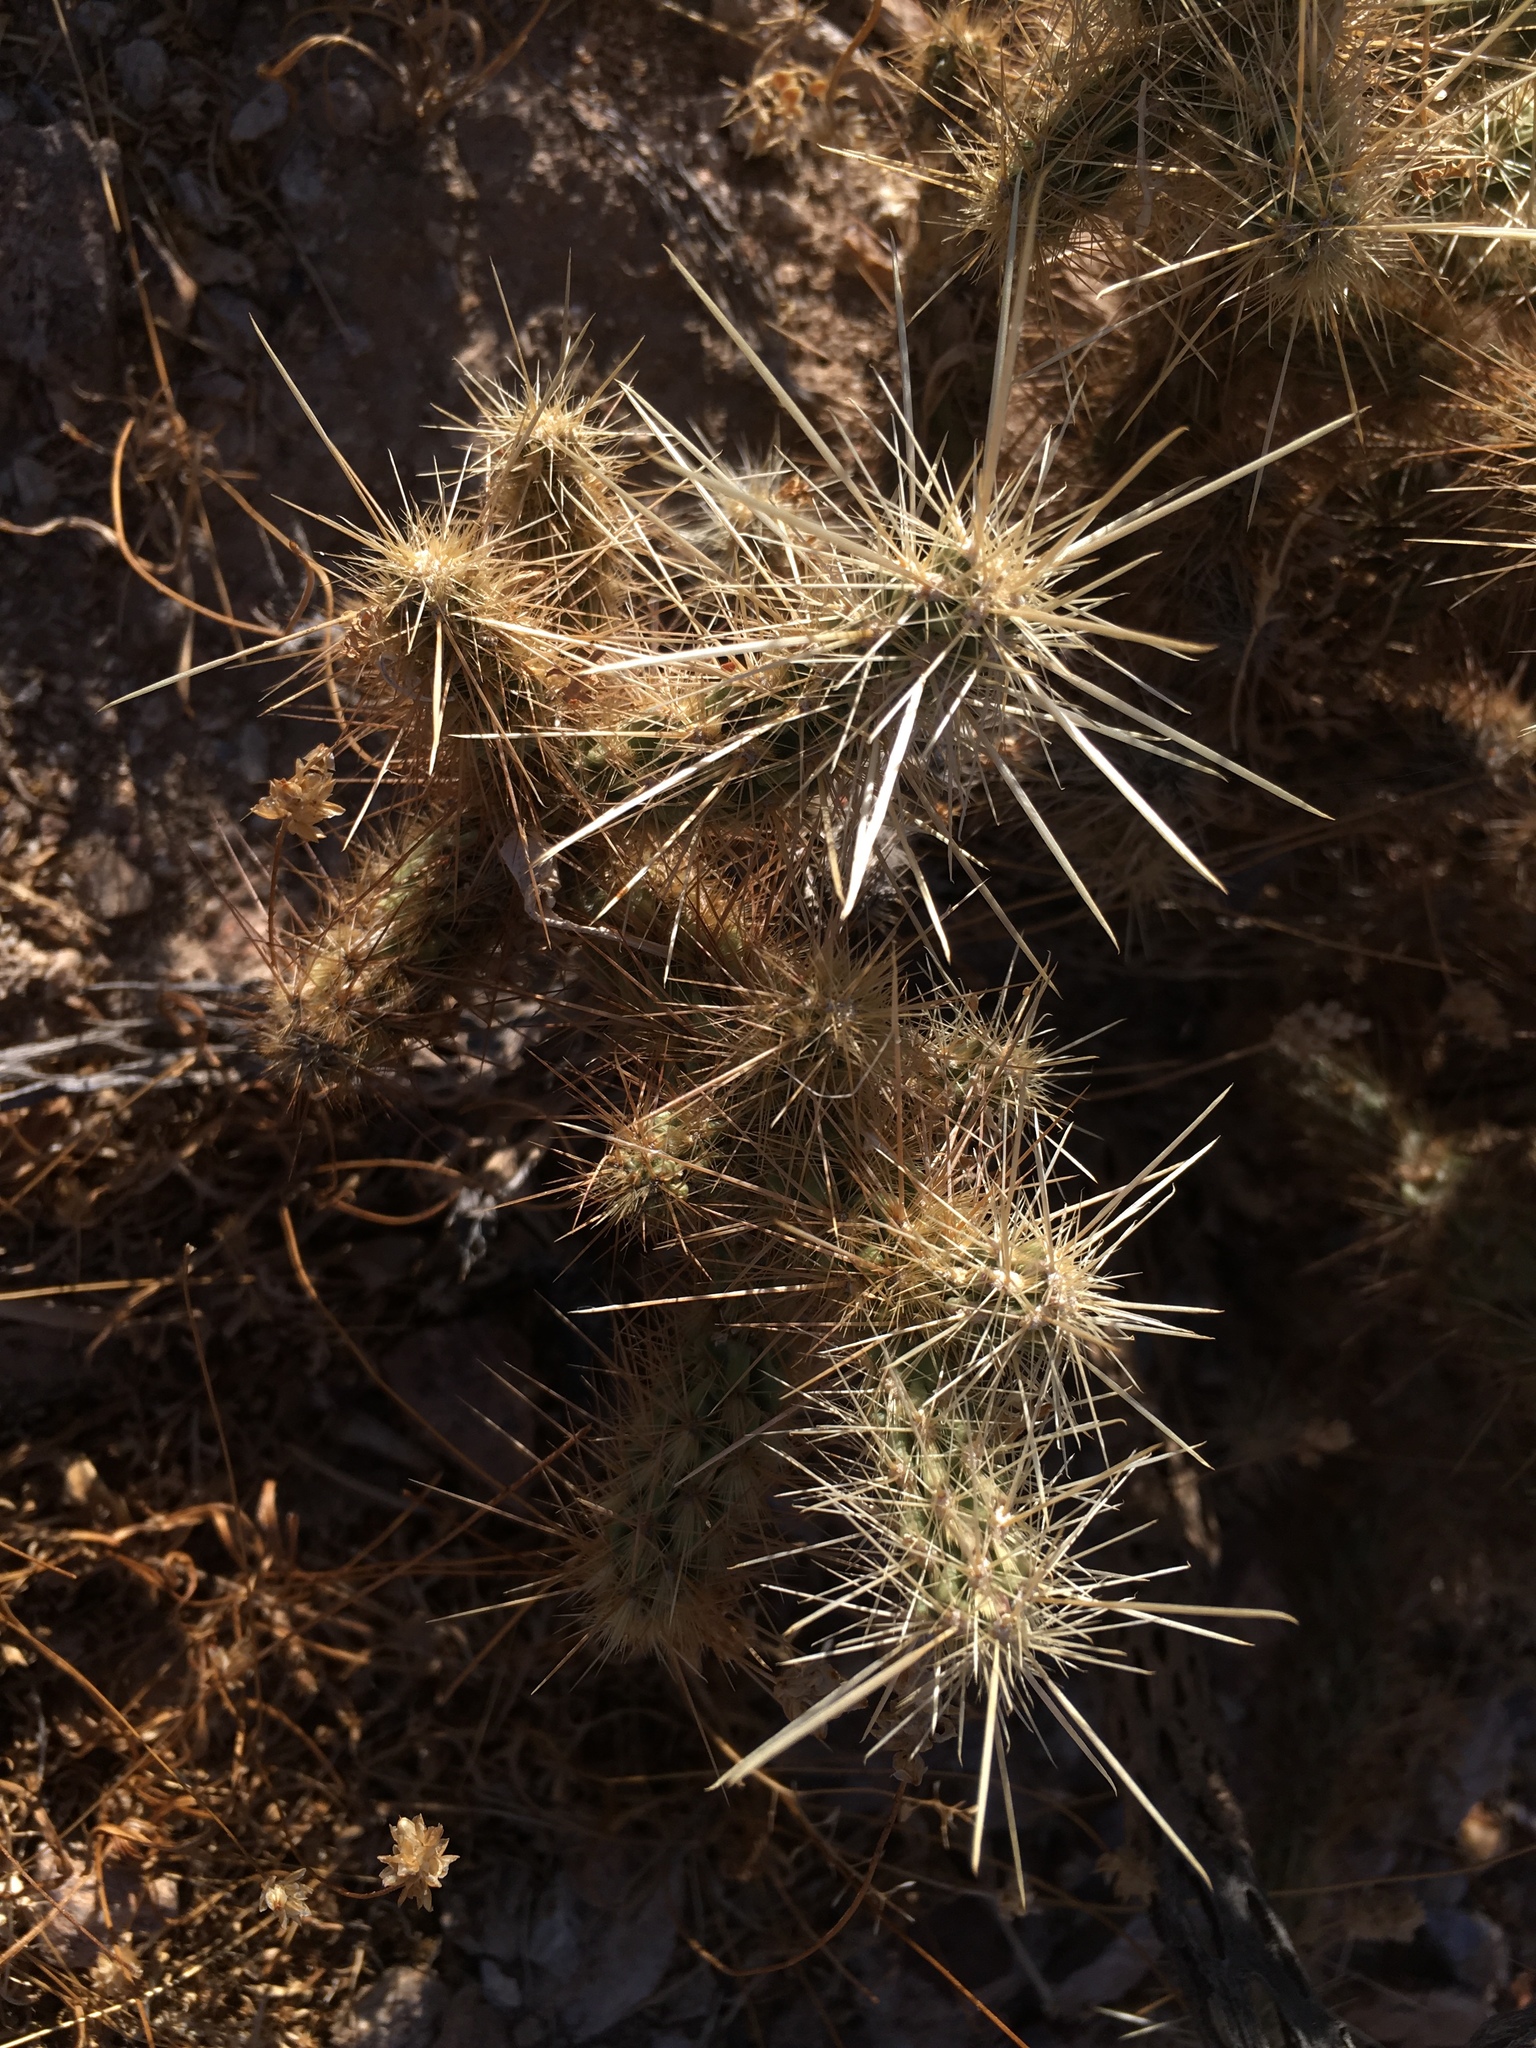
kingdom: Plantae
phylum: Tracheophyta
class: Magnoliopsida
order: Caryophyllales
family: Cactaceae
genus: Cylindropuntia
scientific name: Cylindropuntia echinocarpa
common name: Ground cholla
